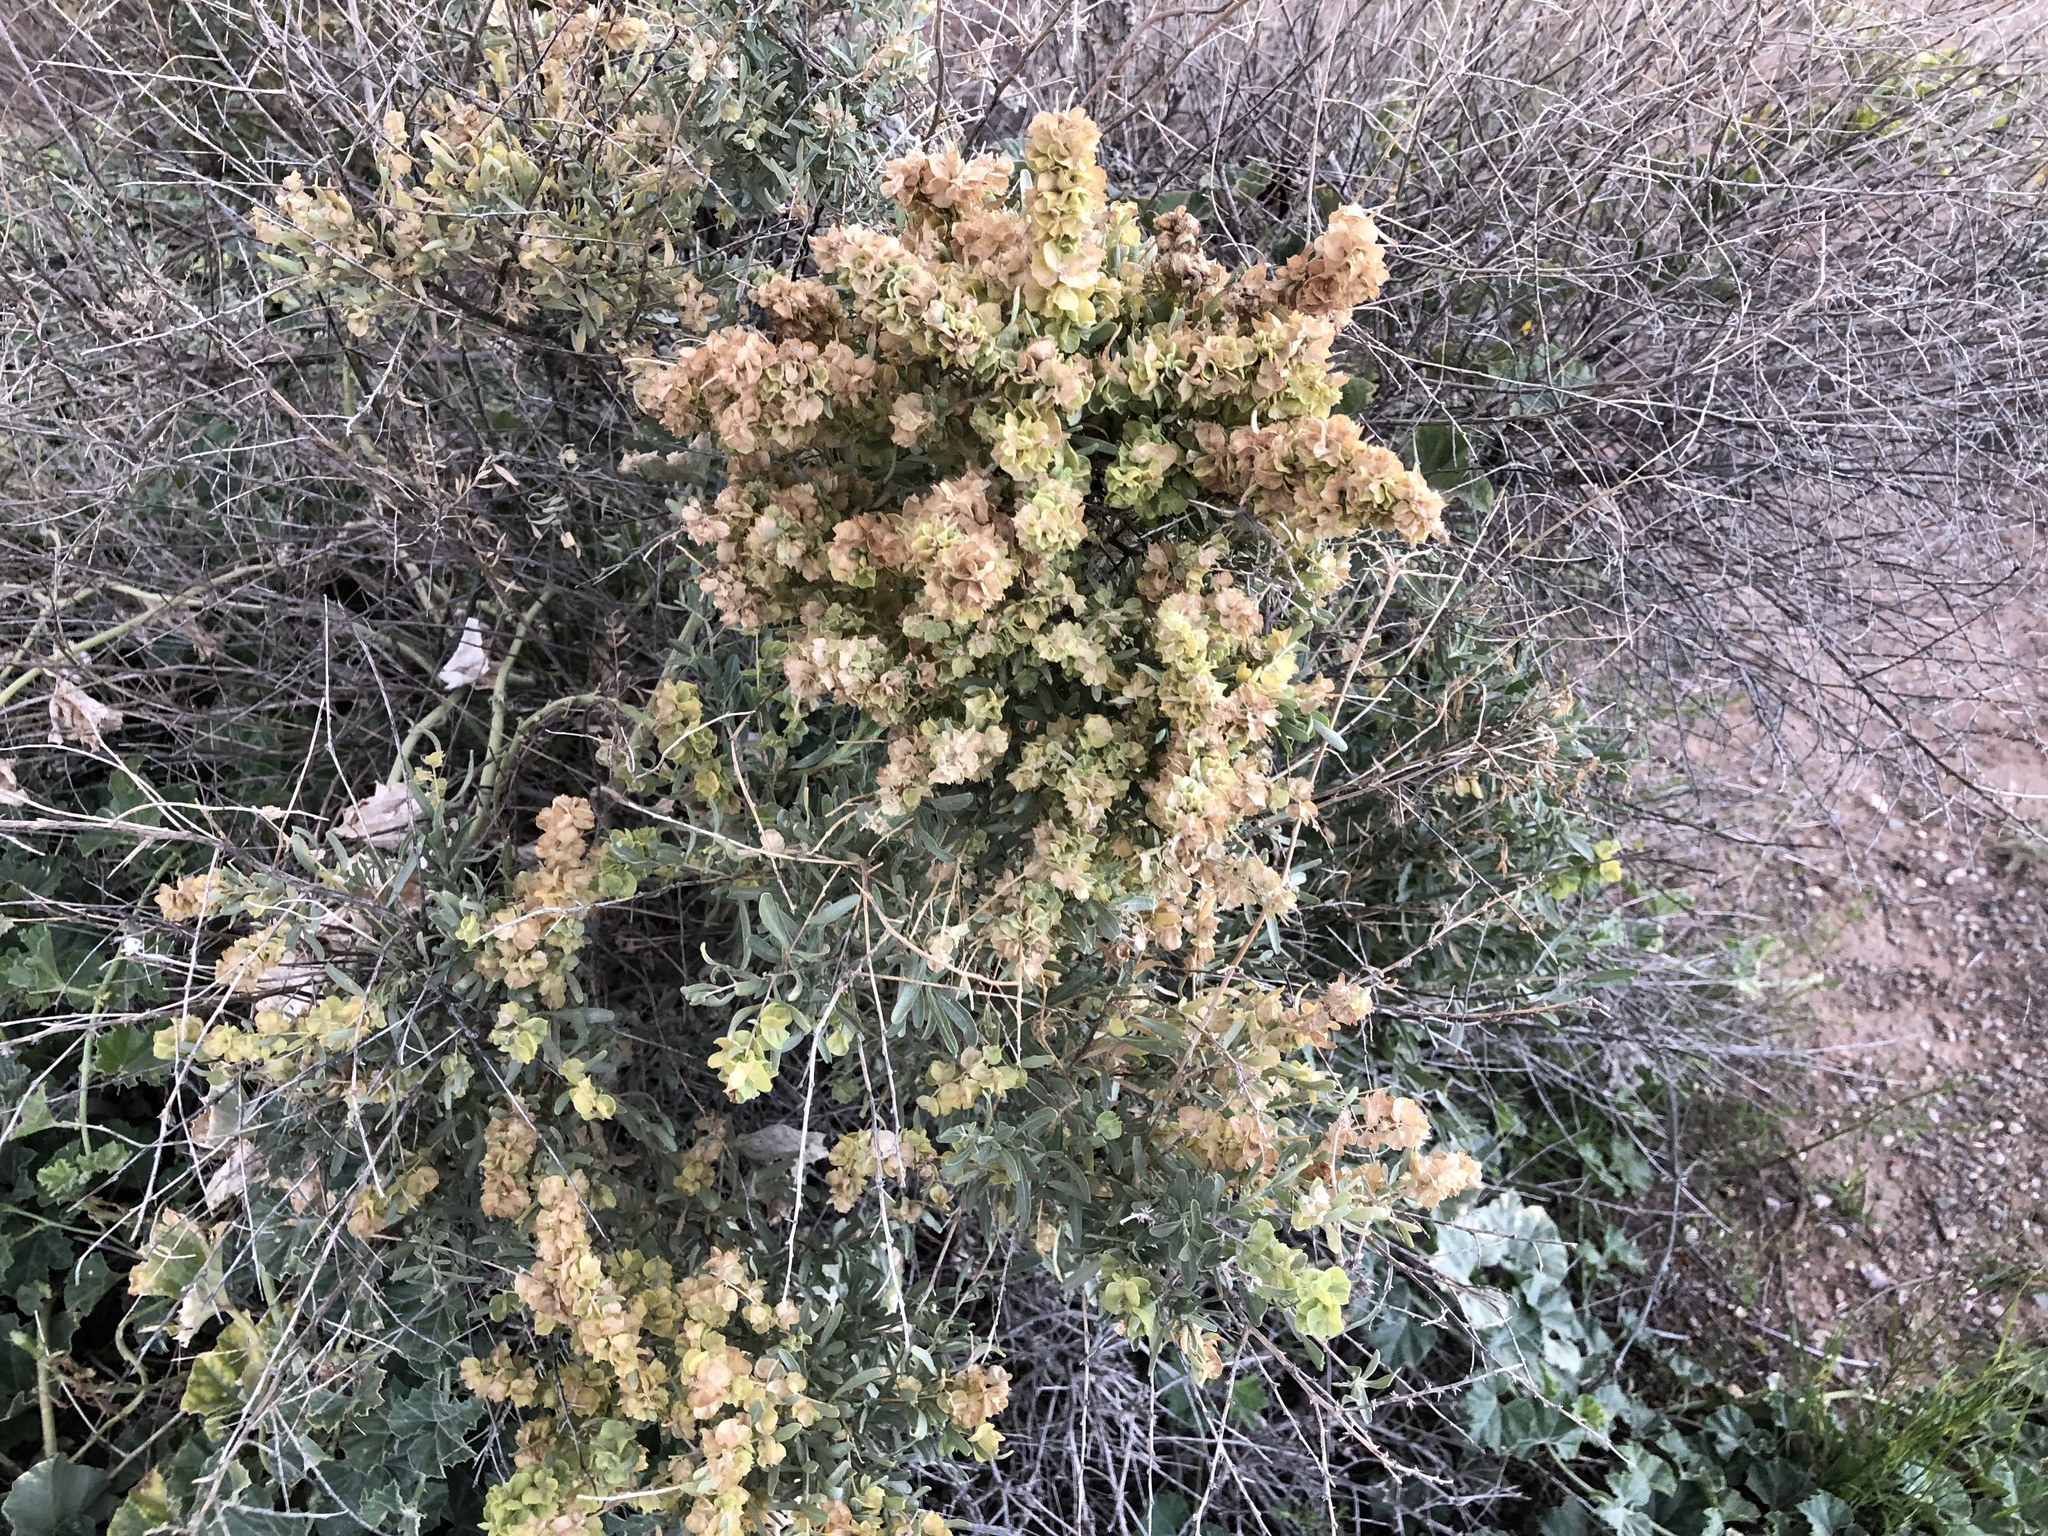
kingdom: Plantae
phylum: Tracheophyta
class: Magnoliopsida
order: Caryophyllales
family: Amaranthaceae
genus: Atriplex
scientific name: Atriplex canescens
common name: Four-wing saltbush
